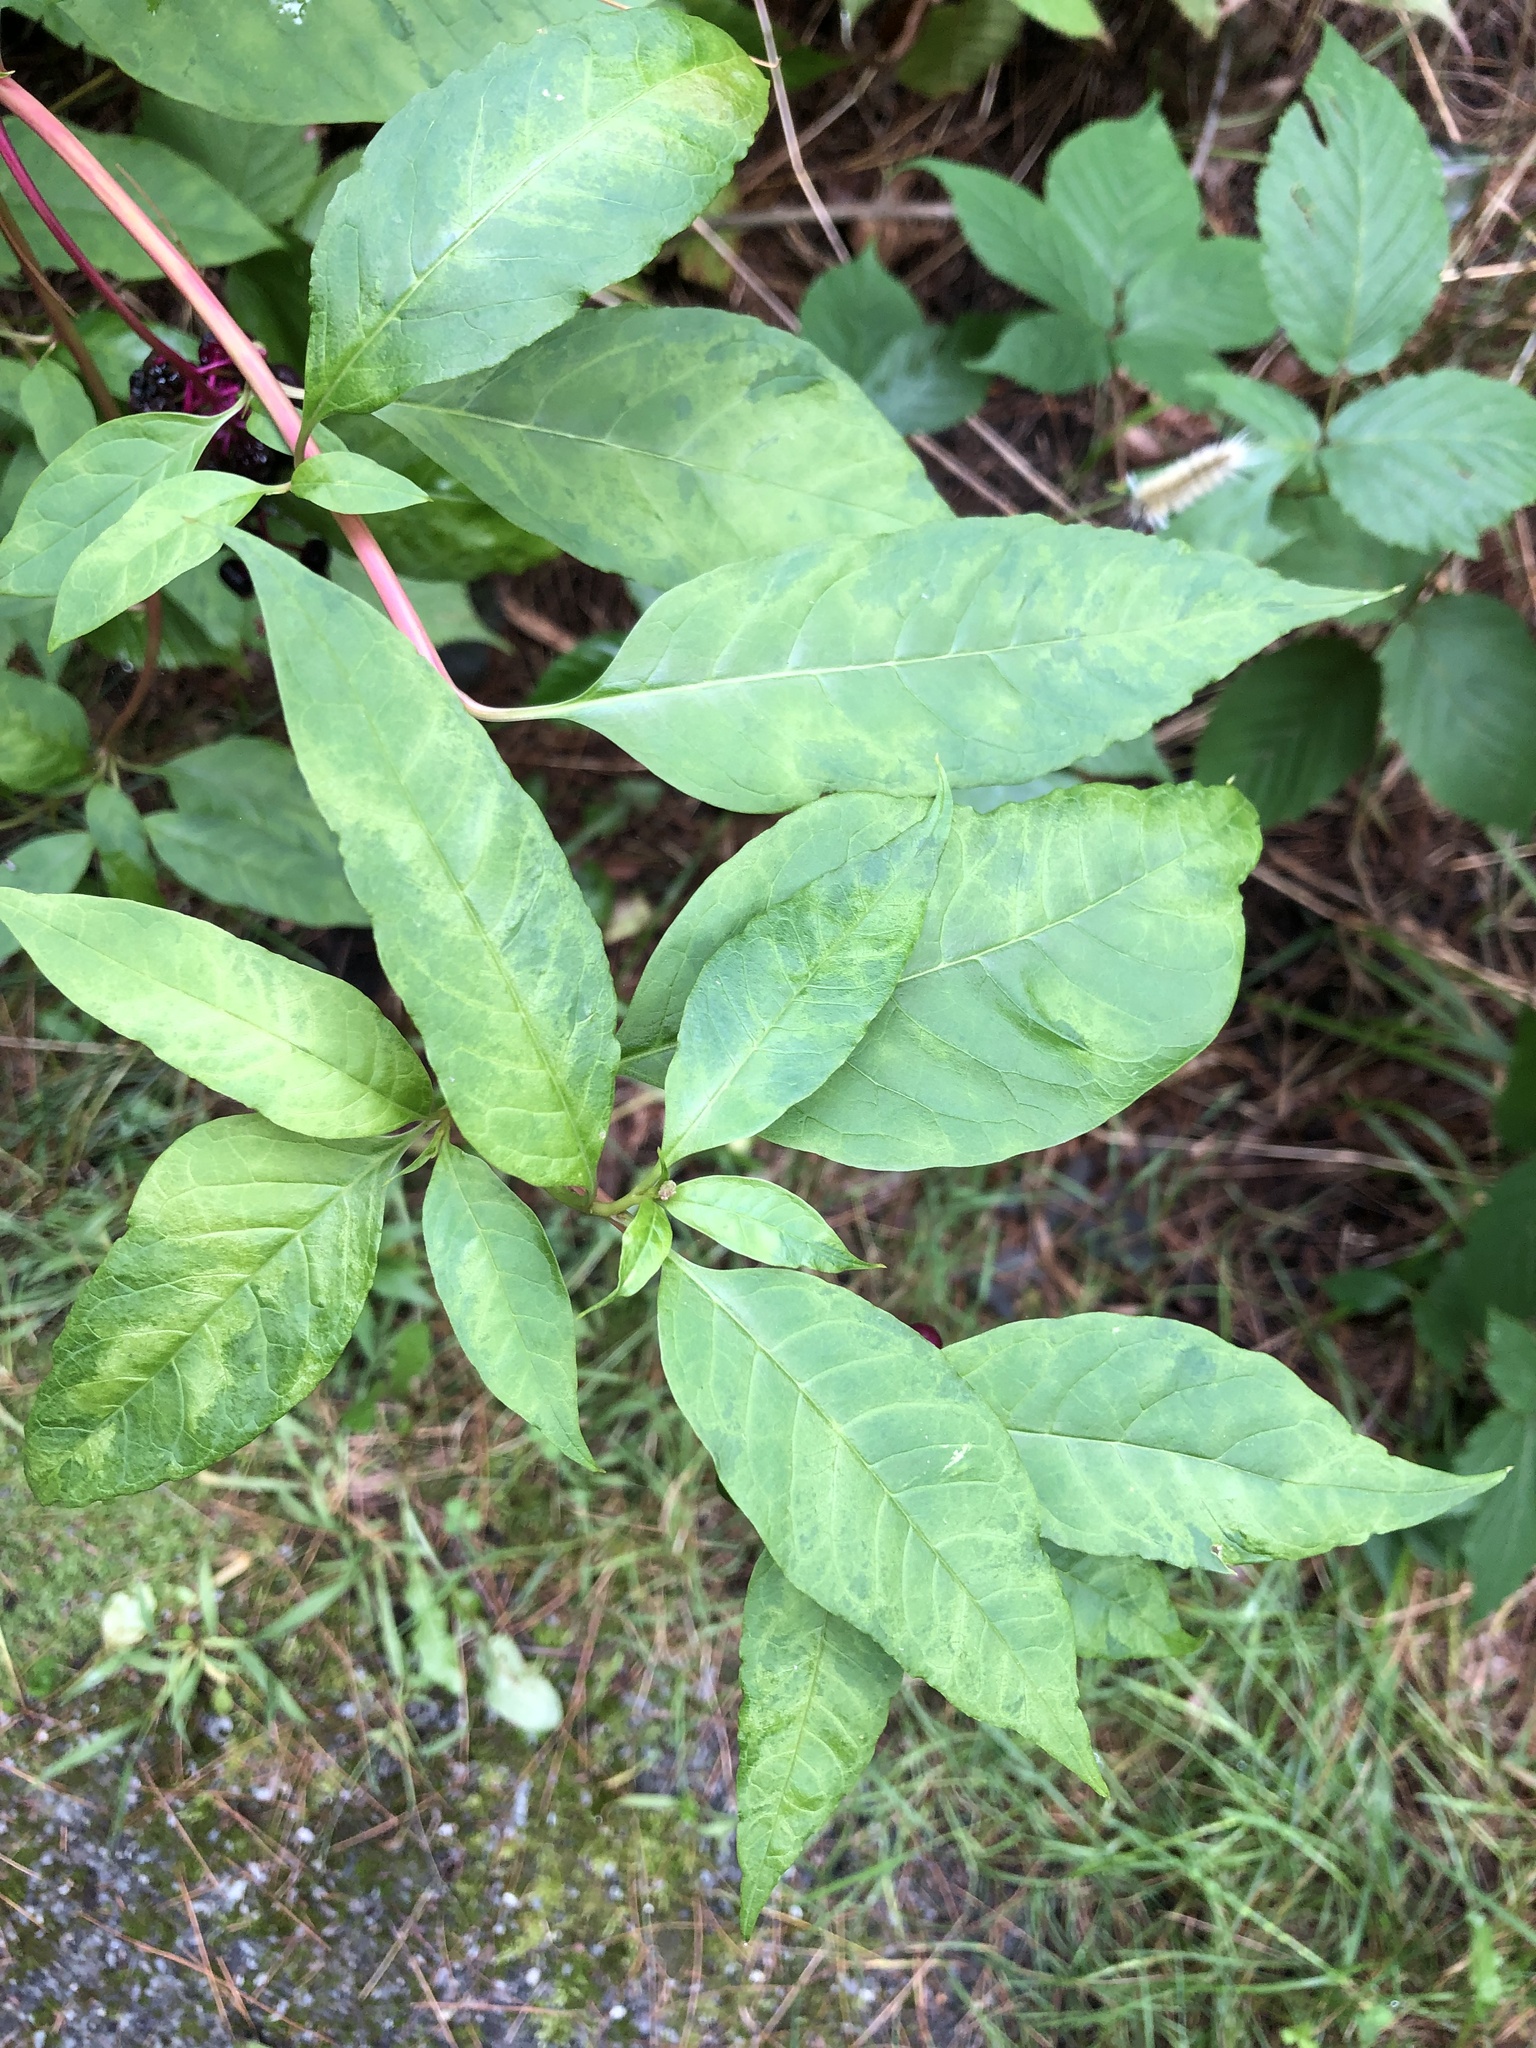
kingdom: Viruses
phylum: Pisuviricota
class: Stelpaviricetes
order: Patatavirales
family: Potyviridae
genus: Potyvirus
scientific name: Potyvirus Pokeweed mosaic virus
